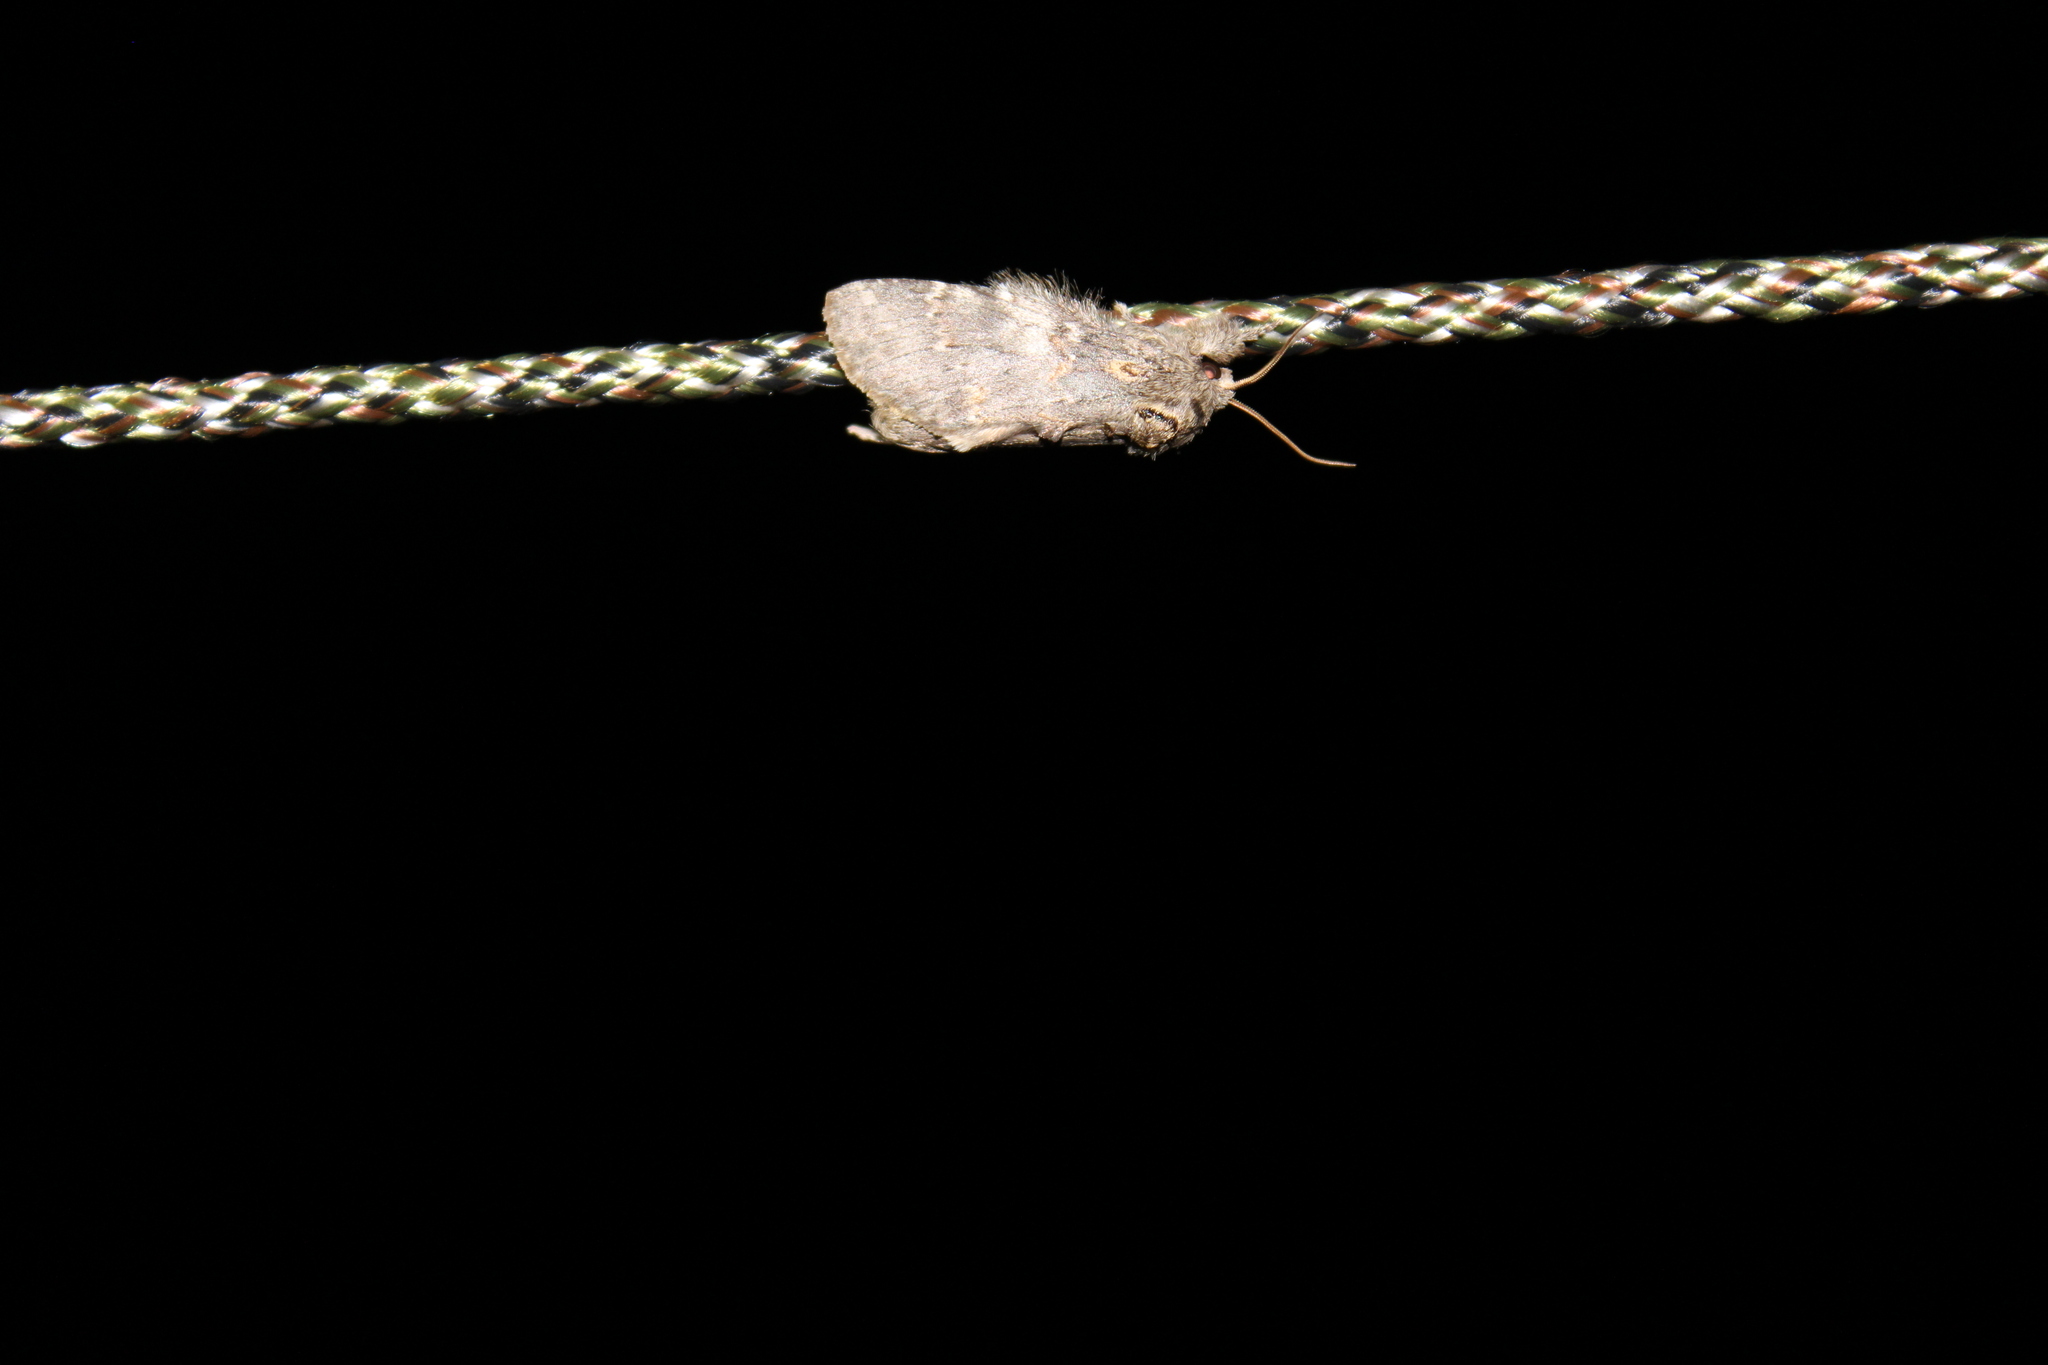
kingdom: Animalia
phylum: Arthropoda
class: Insecta
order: Lepidoptera
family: Notodontidae
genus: Peridea
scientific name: Peridea angulosa
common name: Angulose prominent
